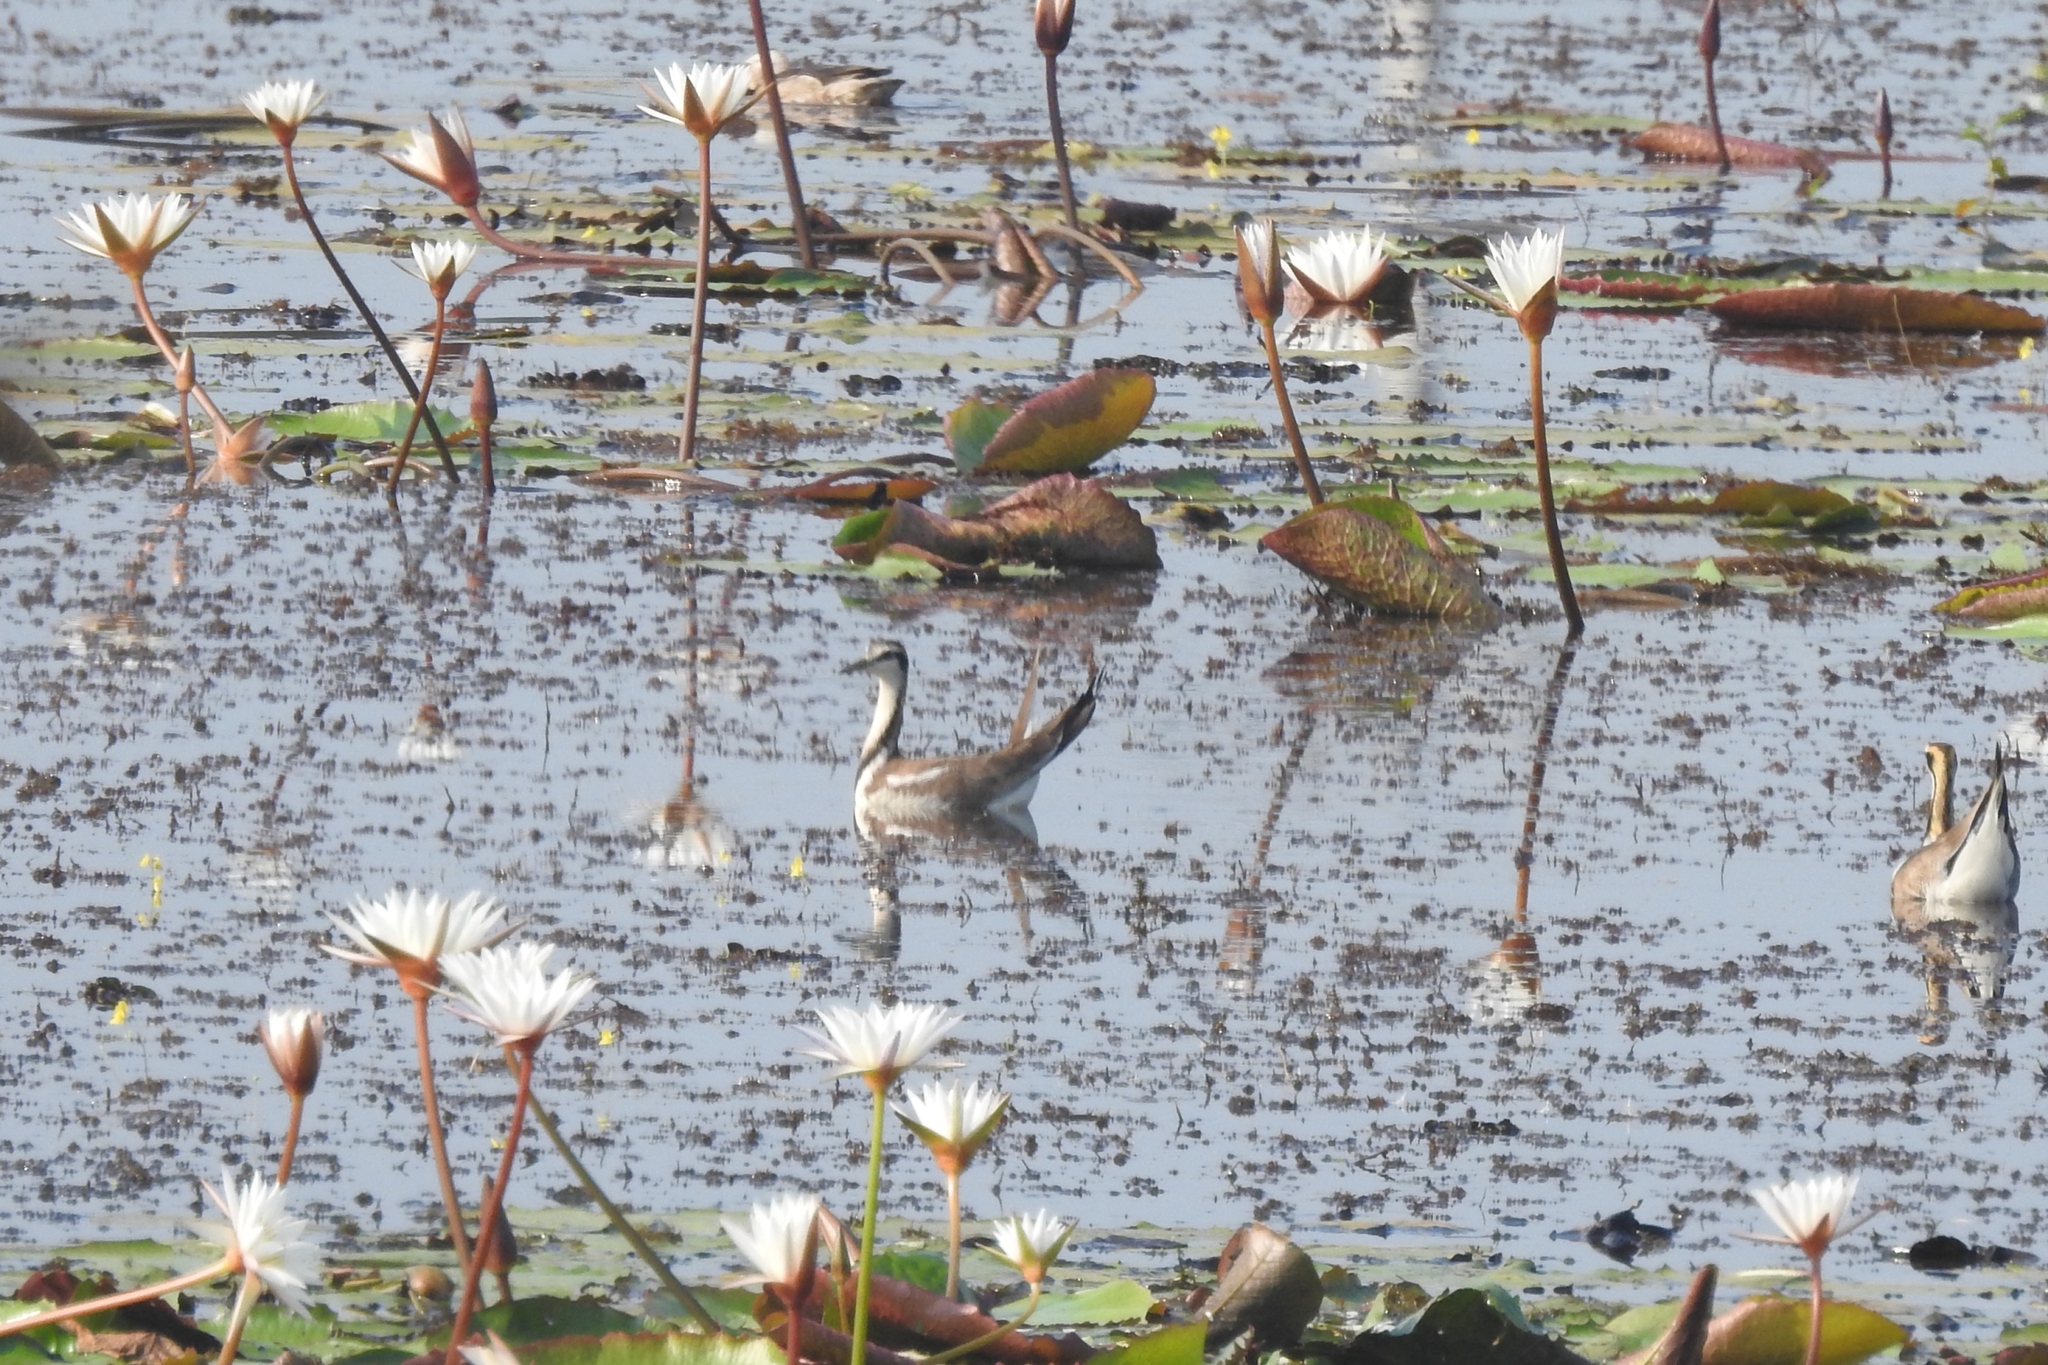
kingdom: Animalia
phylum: Chordata
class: Aves
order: Charadriiformes
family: Jacanidae
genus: Hydrophasianus
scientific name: Hydrophasianus chirurgus
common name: Pheasant-tailed jacana
